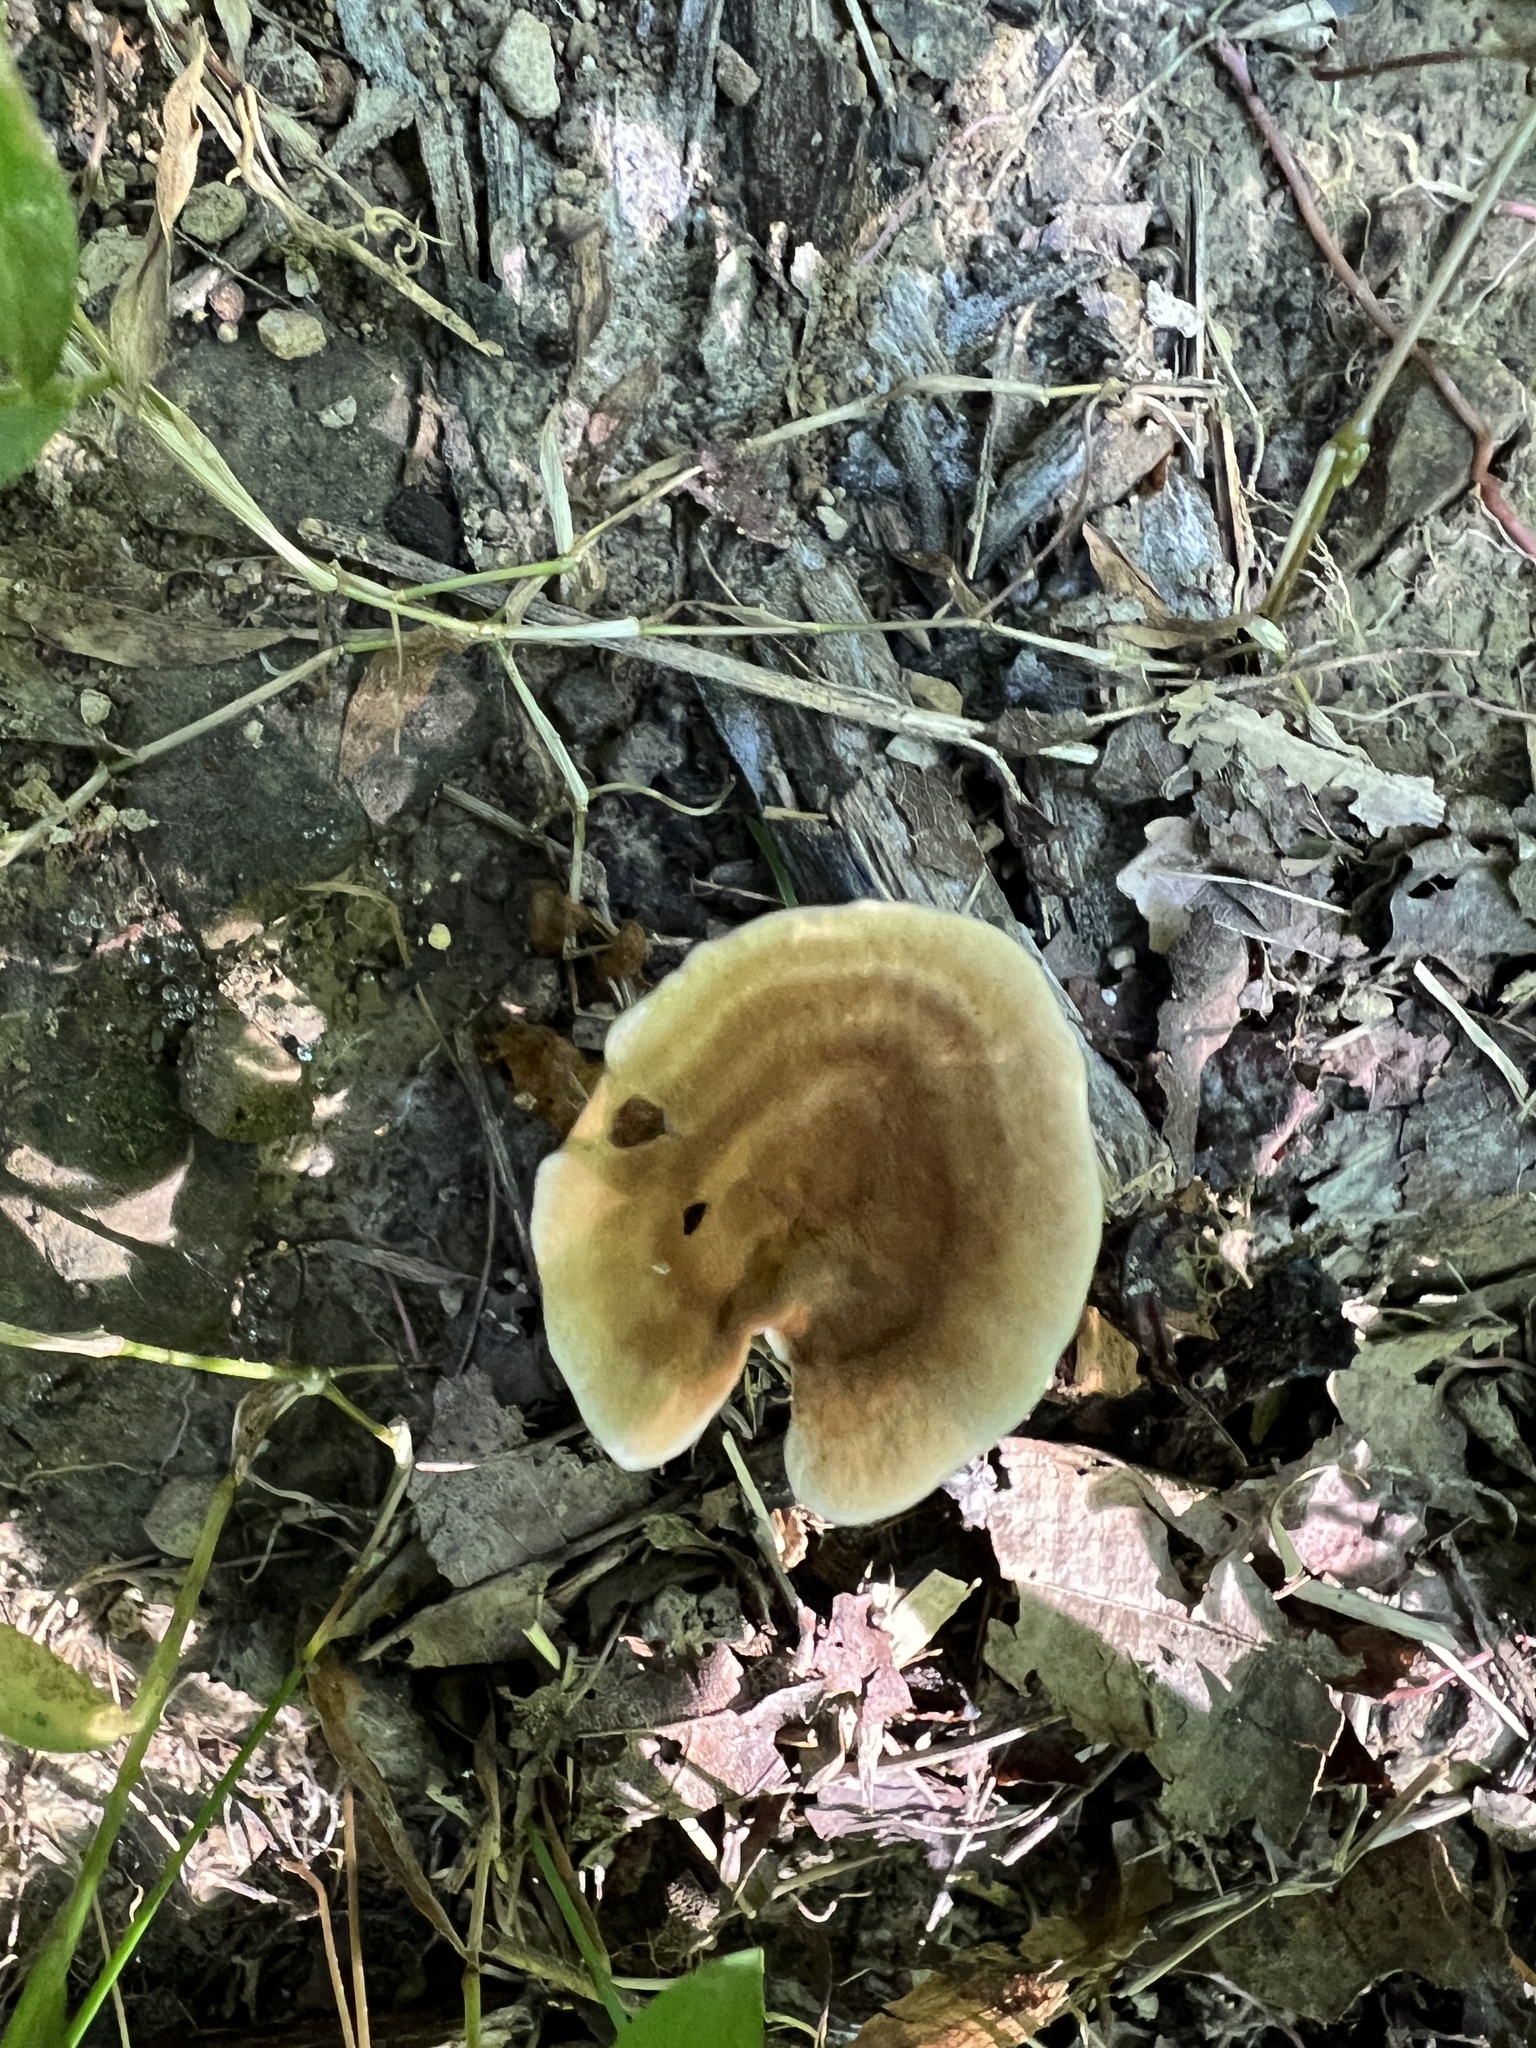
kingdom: Fungi
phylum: Basidiomycota
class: Agaricomycetes
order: Hymenochaetales
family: Hymenochaetaceae
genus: Coltricia
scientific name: Coltricia confluens
